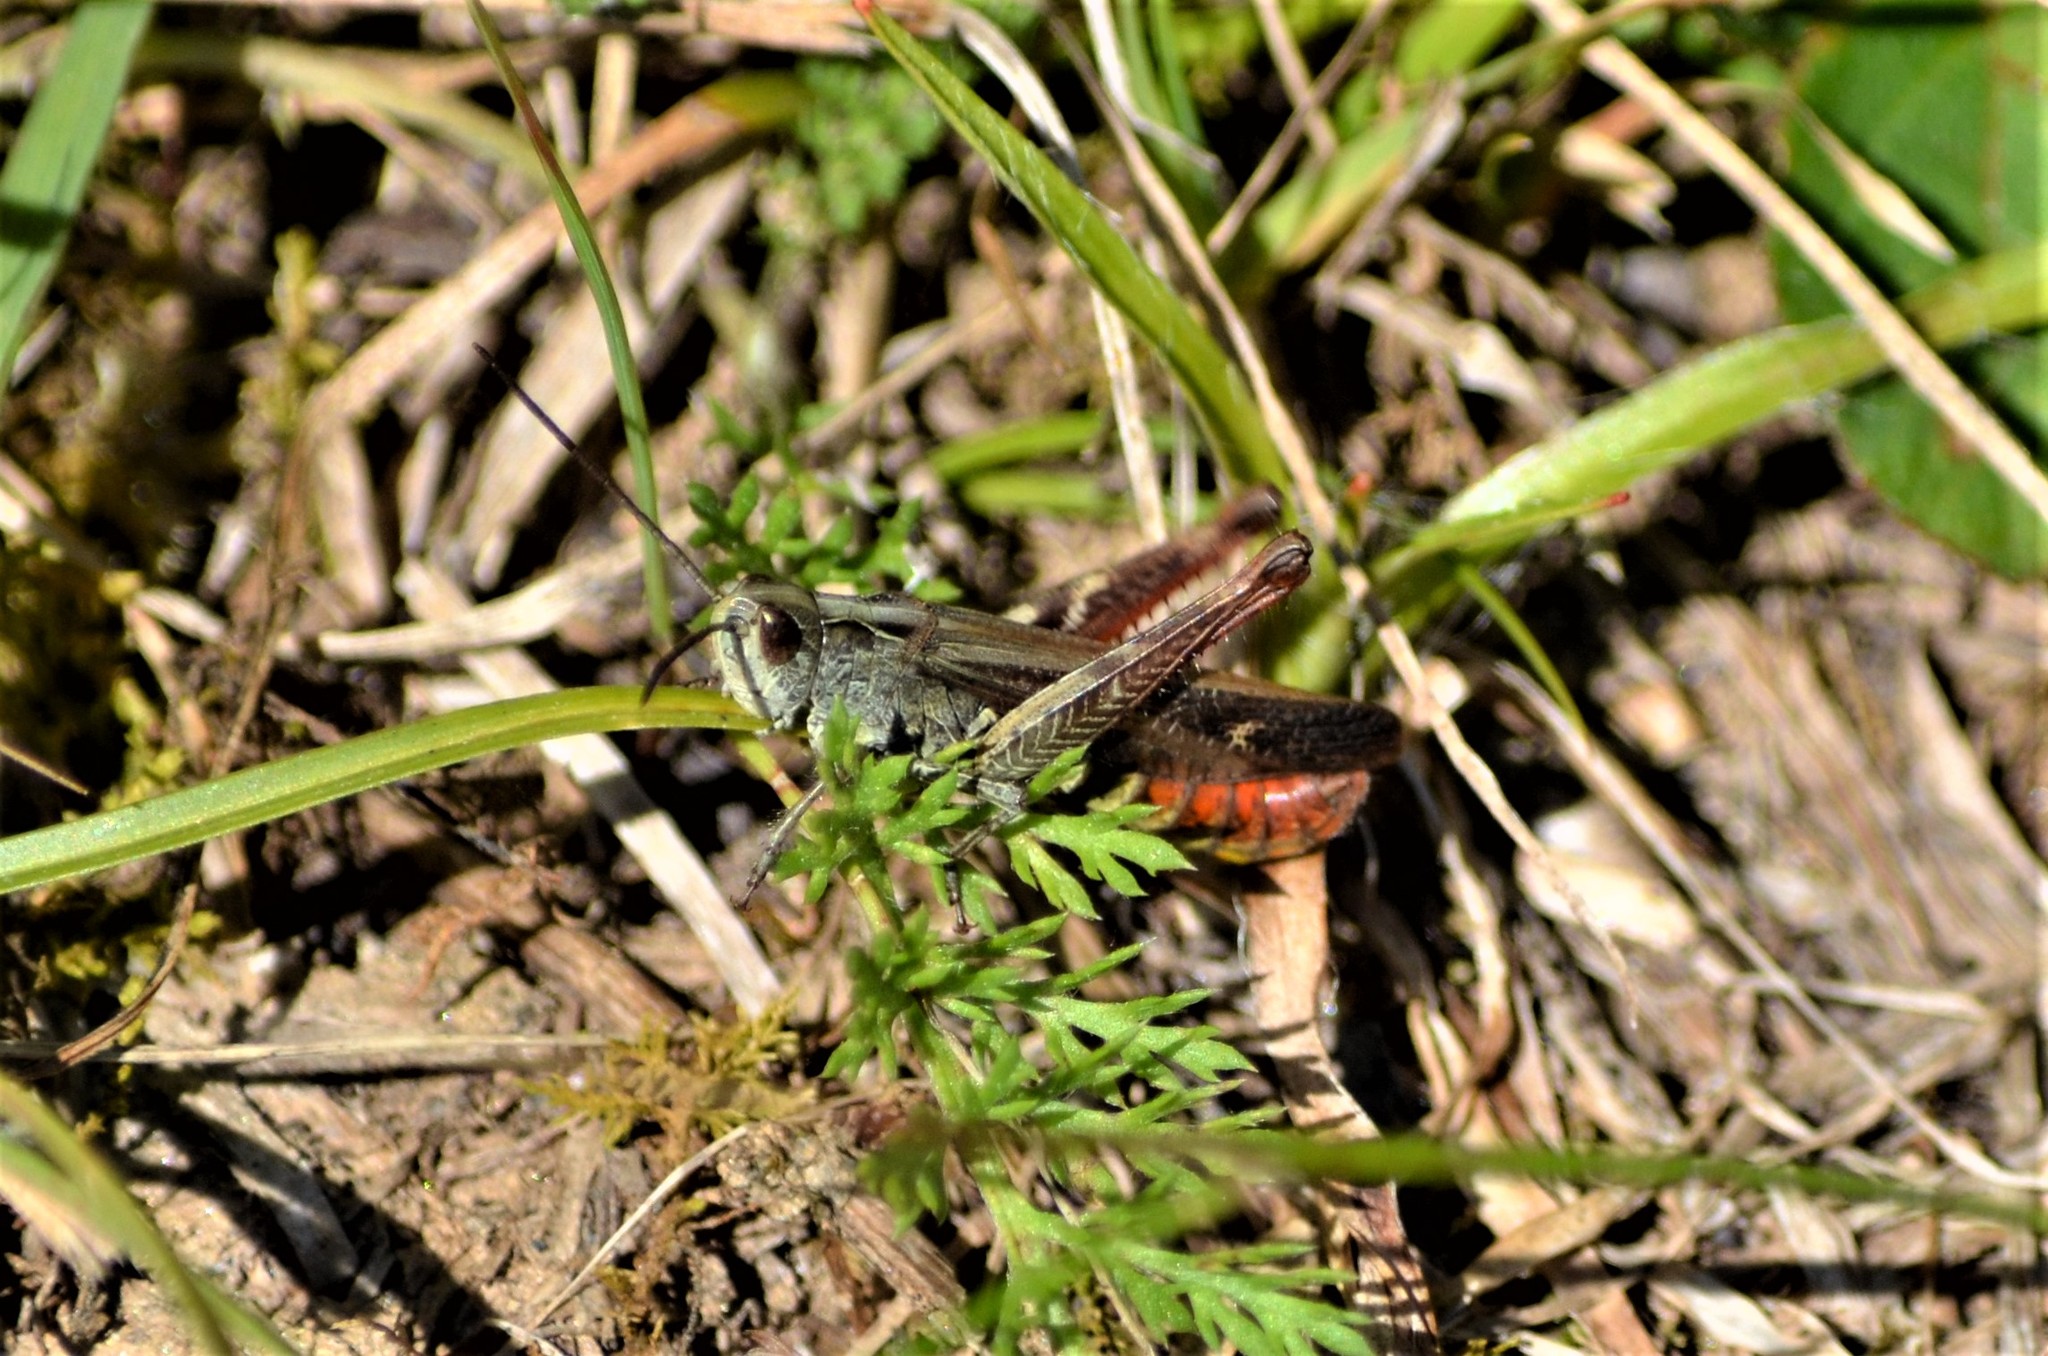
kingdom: Animalia
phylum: Arthropoda
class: Insecta
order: Orthoptera
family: Acrididae
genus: Chorthippus
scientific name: Chorthippus biguttulus
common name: Bow-winged grasshopper
